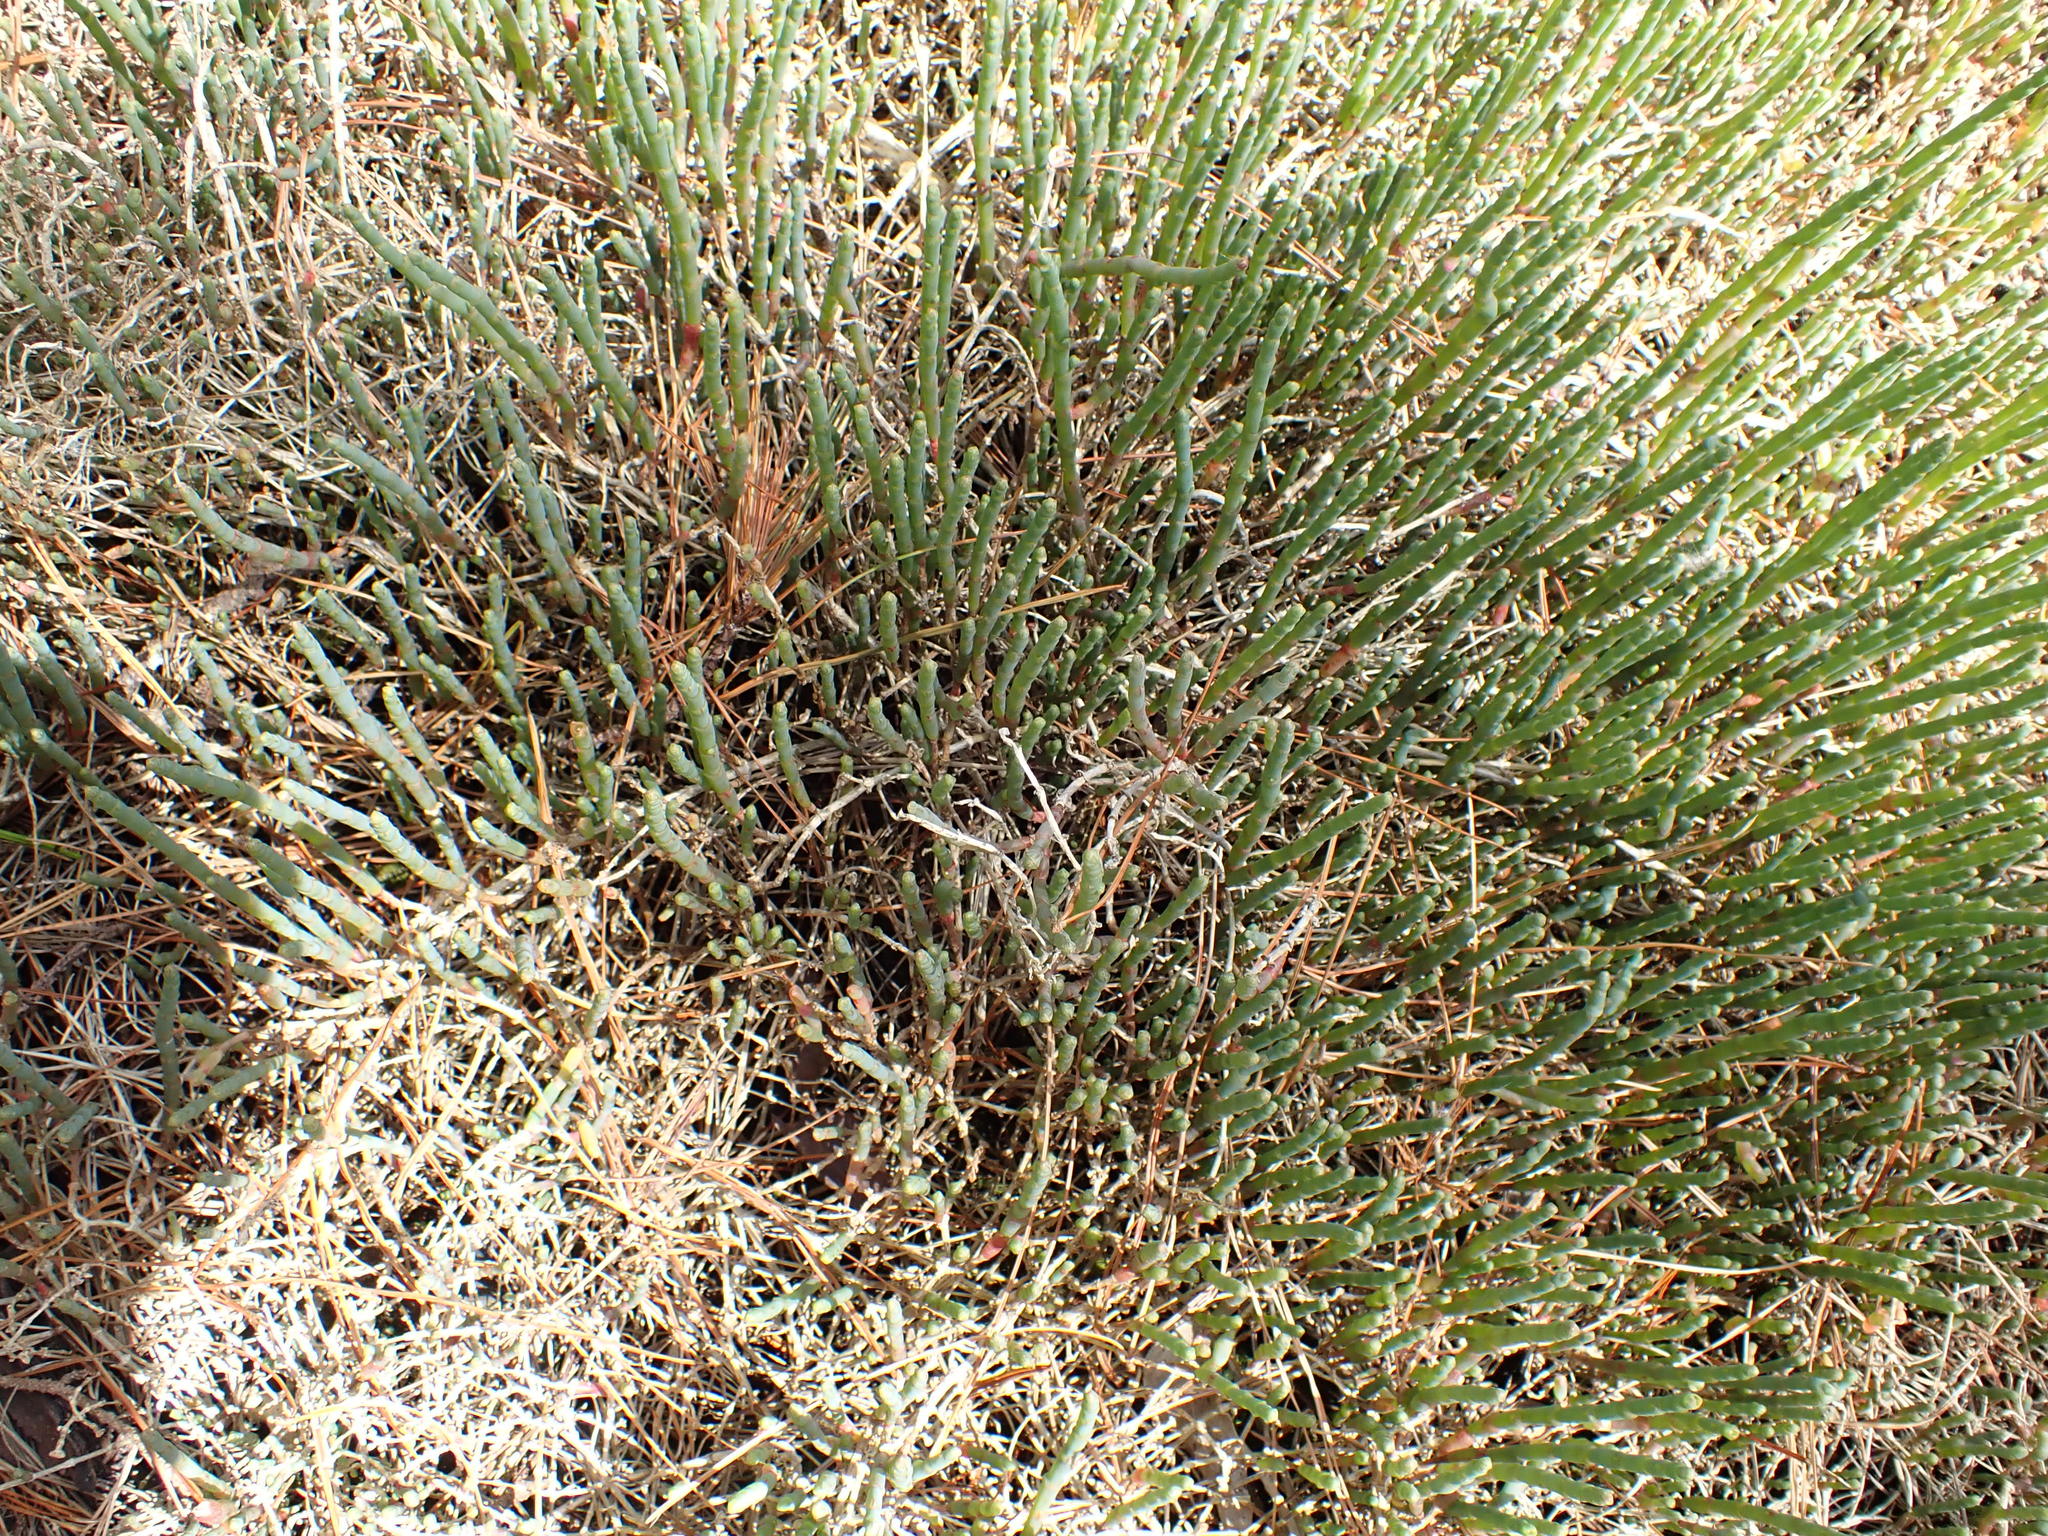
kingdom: Plantae
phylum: Tracheophyta
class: Magnoliopsida
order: Caryophyllales
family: Amaranthaceae
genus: Salicornia
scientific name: Salicornia quinqueflora
